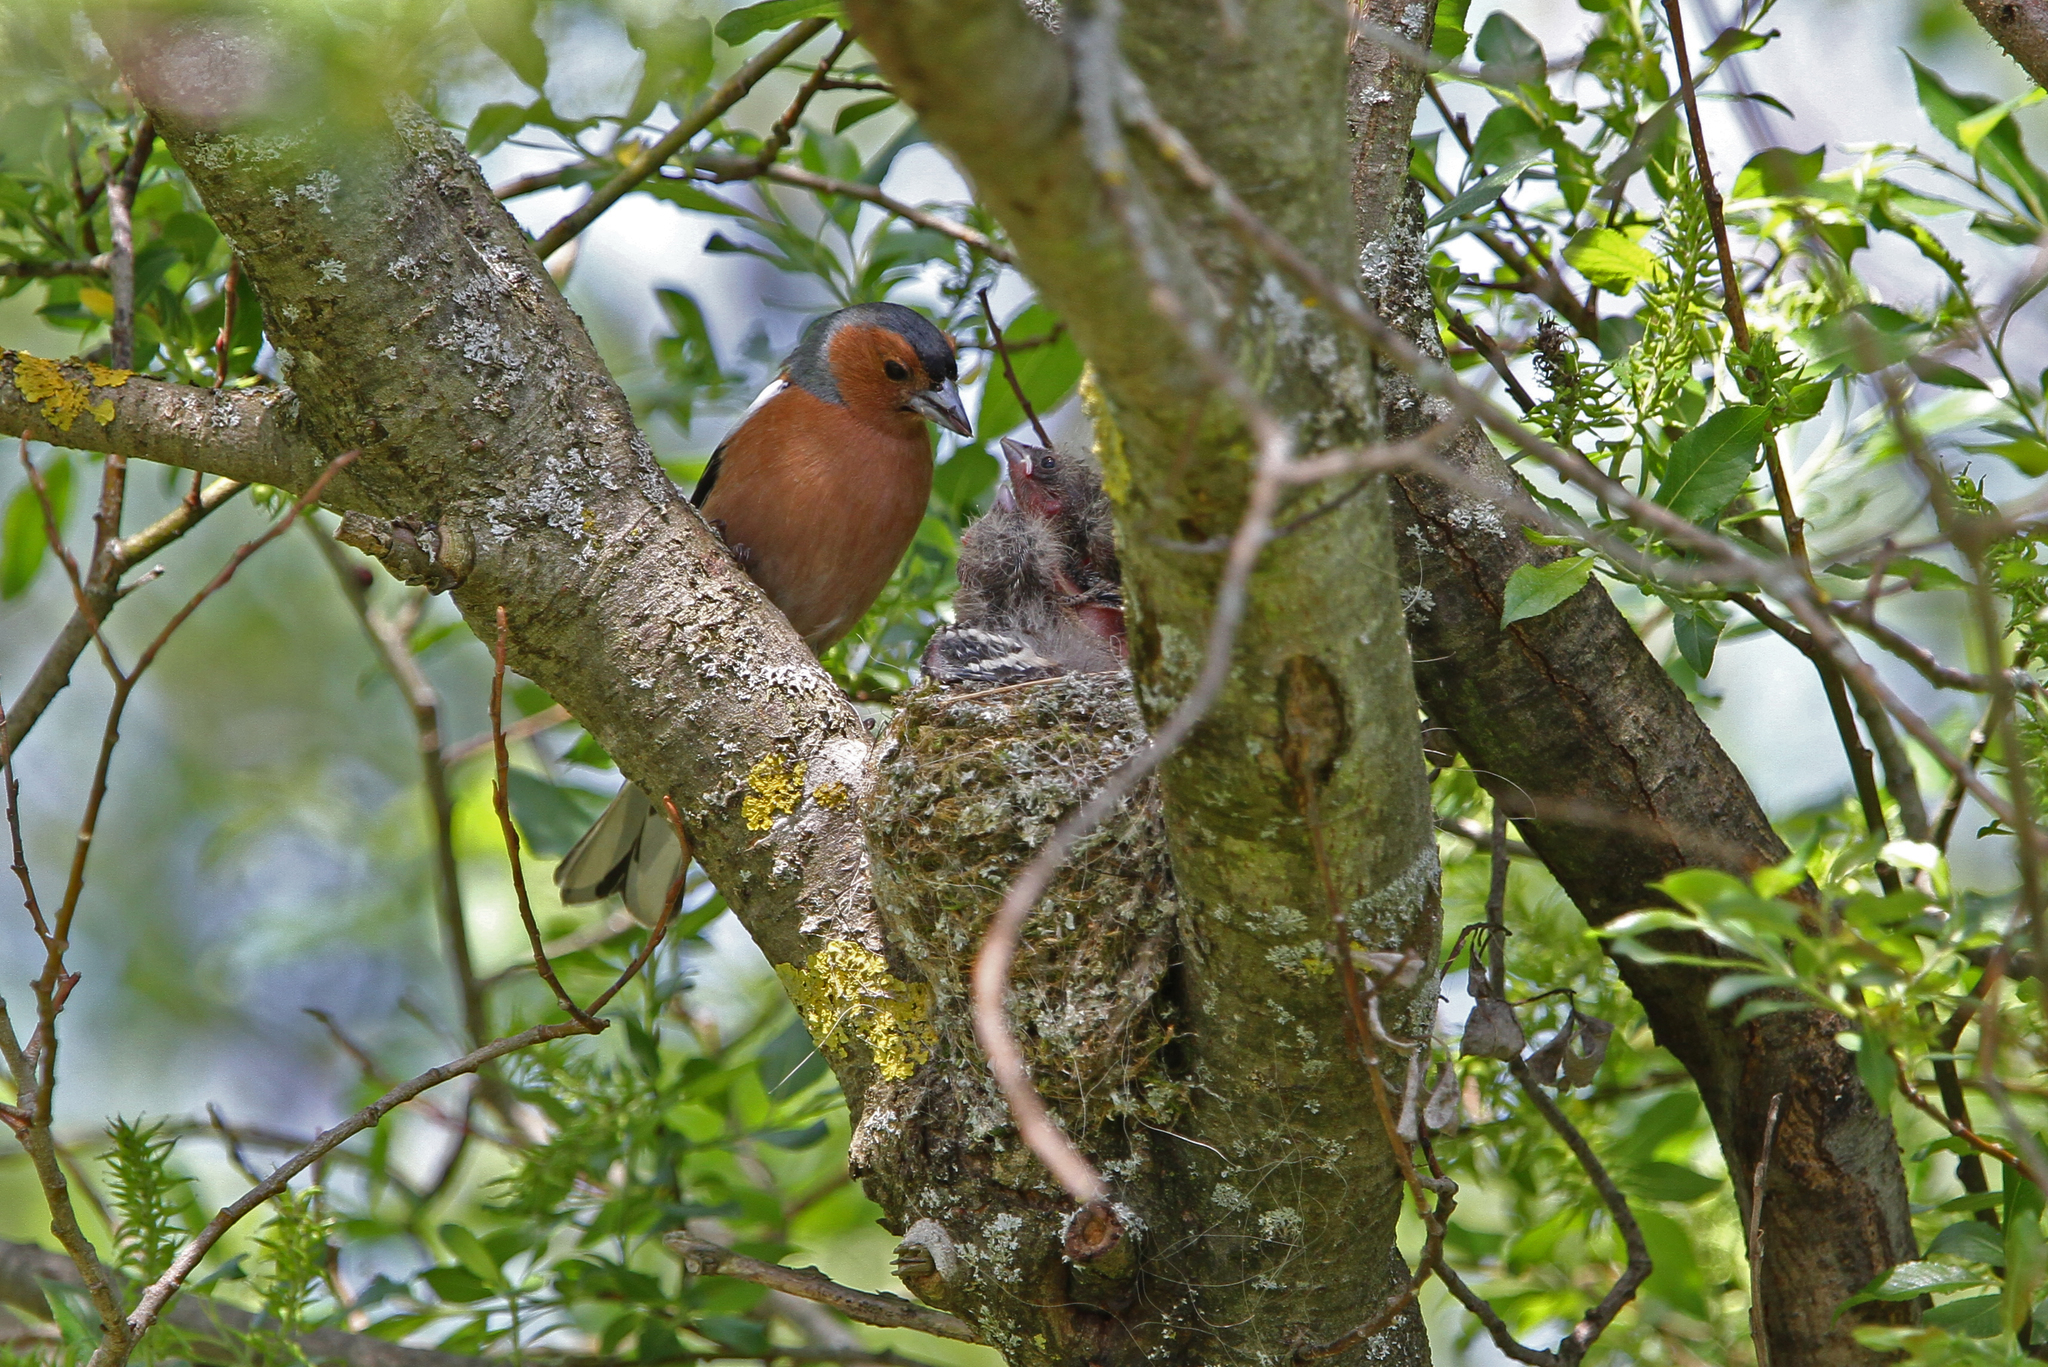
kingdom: Animalia
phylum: Chordata
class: Aves
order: Passeriformes
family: Fringillidae
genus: Fringilla
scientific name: Fringilla coelebs
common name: Common chaffinch
